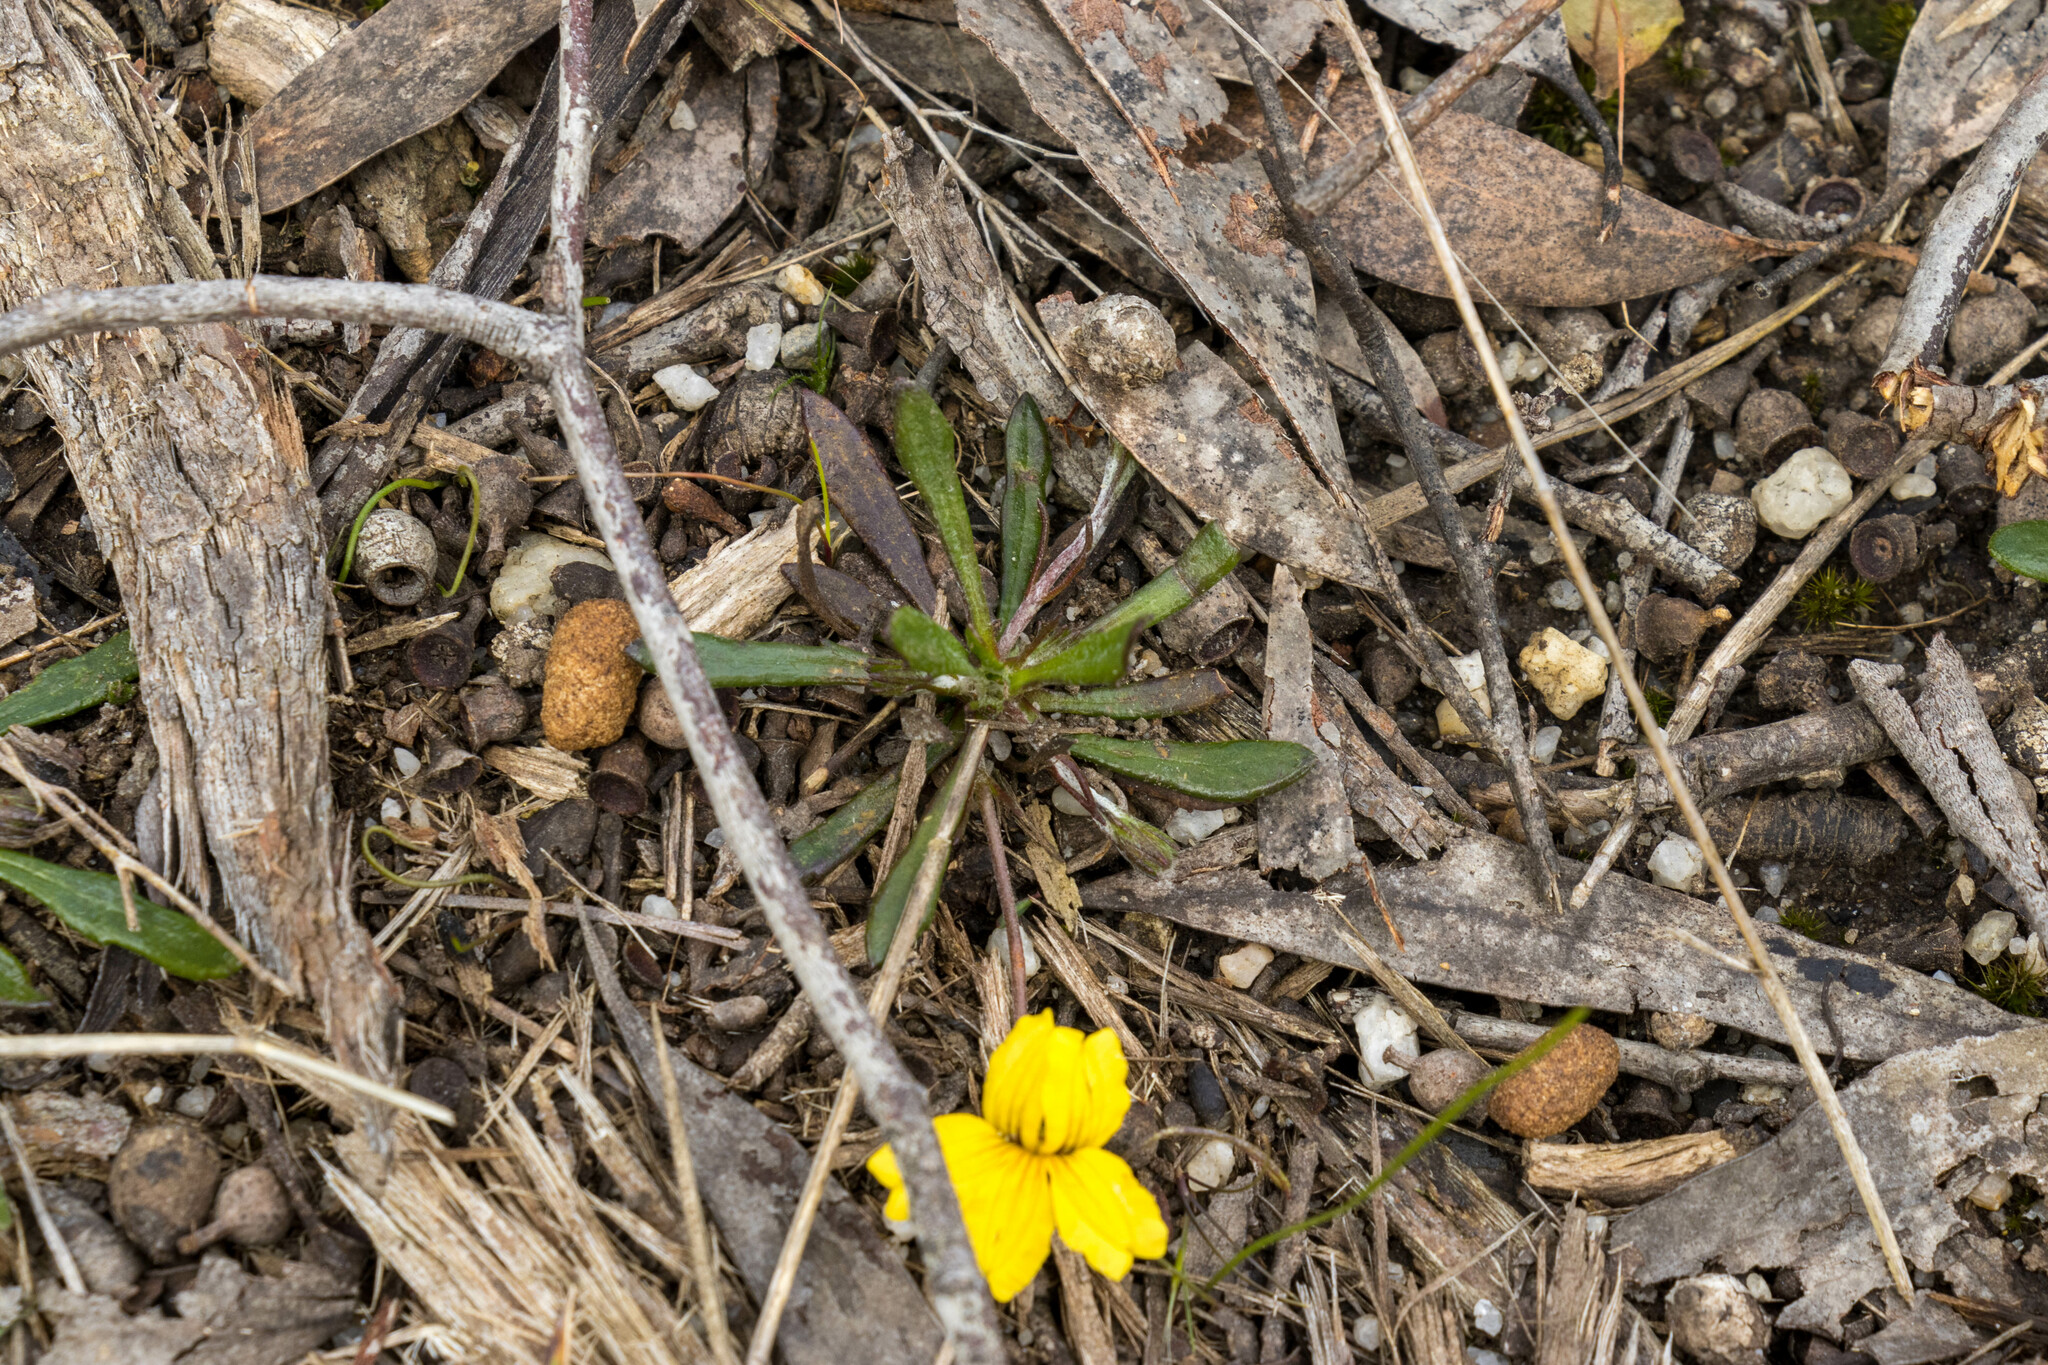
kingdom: Plantae
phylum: Tracheophyta
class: Magnoliopsida
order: Asterales
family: Goodeniaceae
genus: Goodenia
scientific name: Goodenia geniculata
